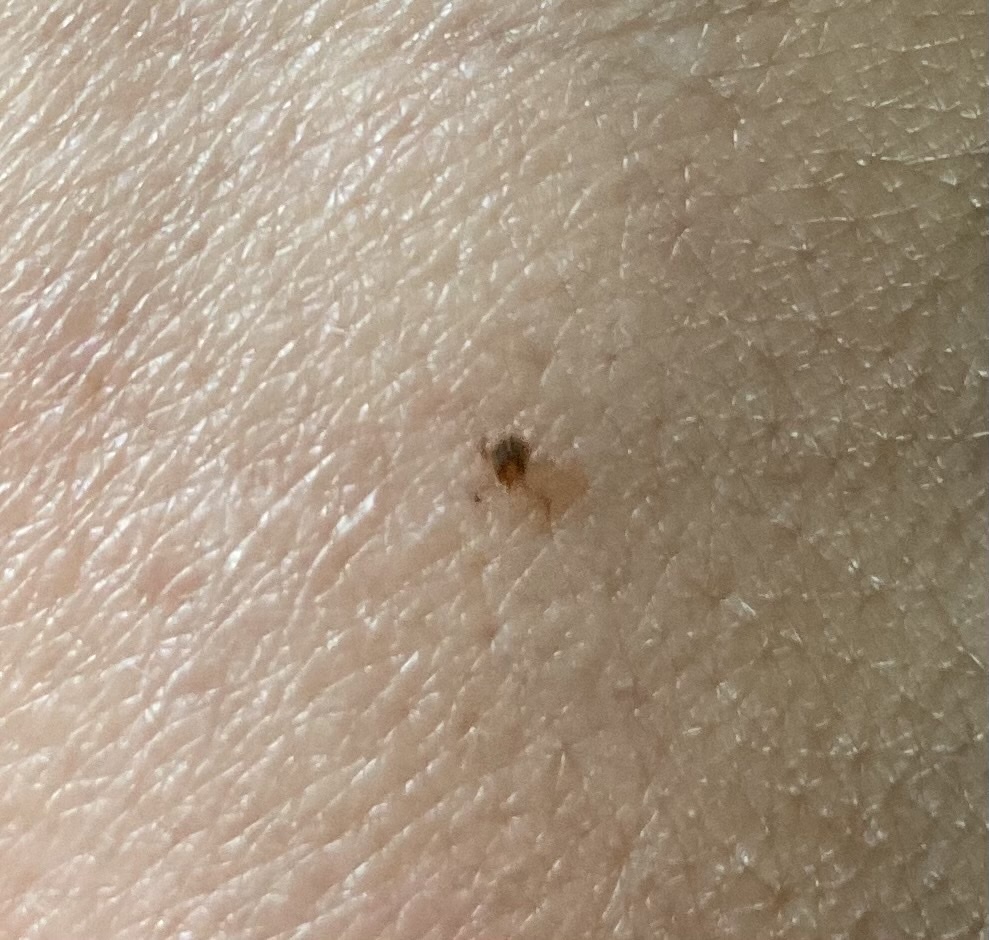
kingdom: Animalia
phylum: Arthropoda
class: Arachnida
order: Ixodida
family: Ixodidae
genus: Amblyomma
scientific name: Amblyomma americanum
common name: Lone star tick
